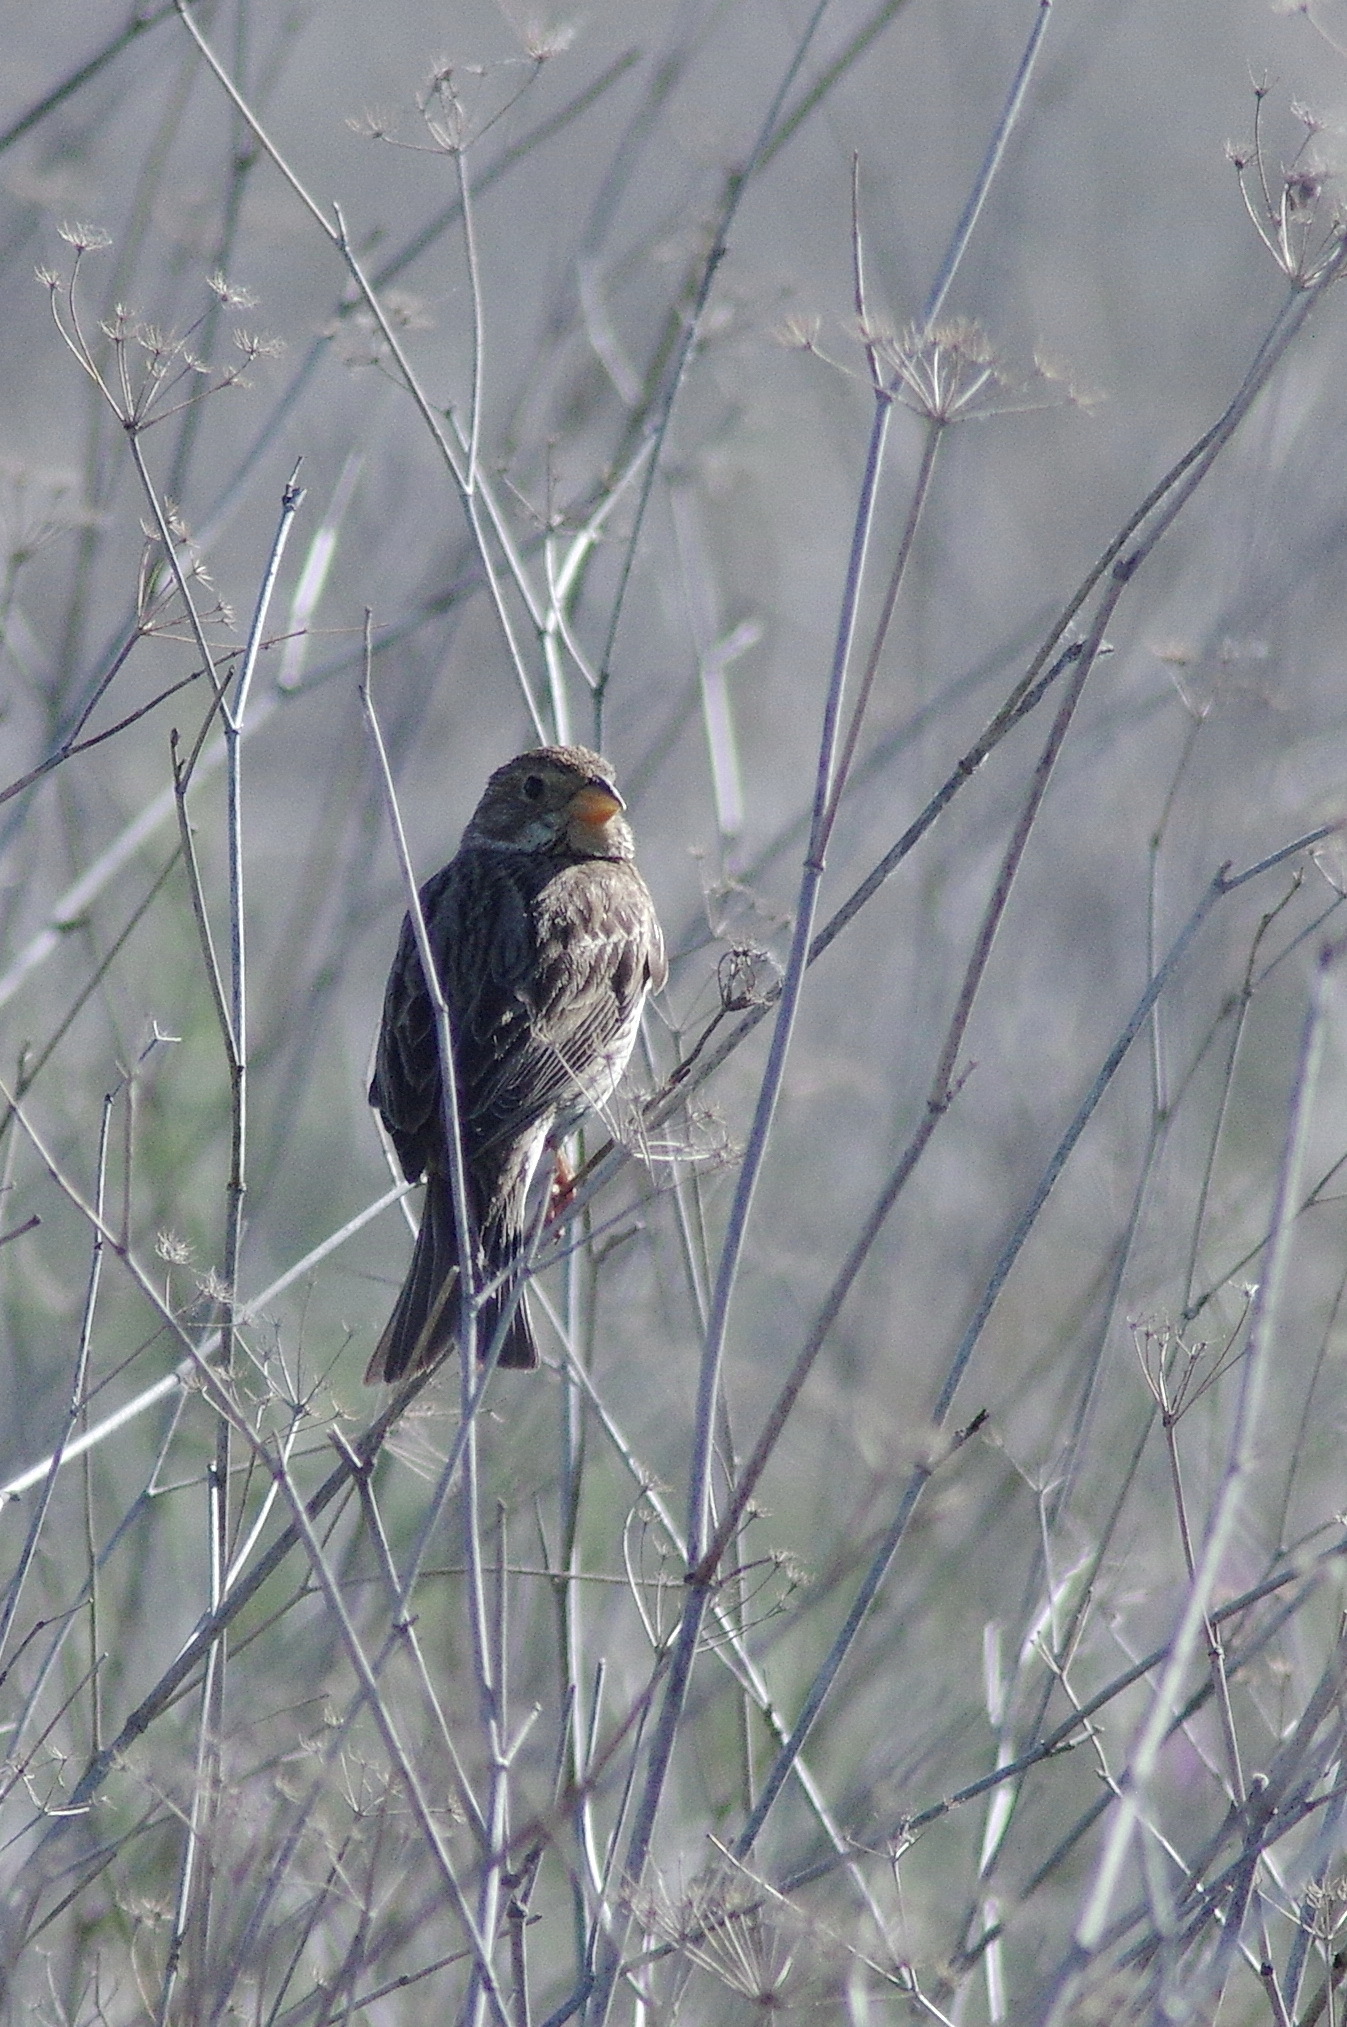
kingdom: Animalia
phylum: Chordata
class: Aves
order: Passeriformes
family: Emberizidae
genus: Emberiza
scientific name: Emberiza calandra
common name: Corn bunting
